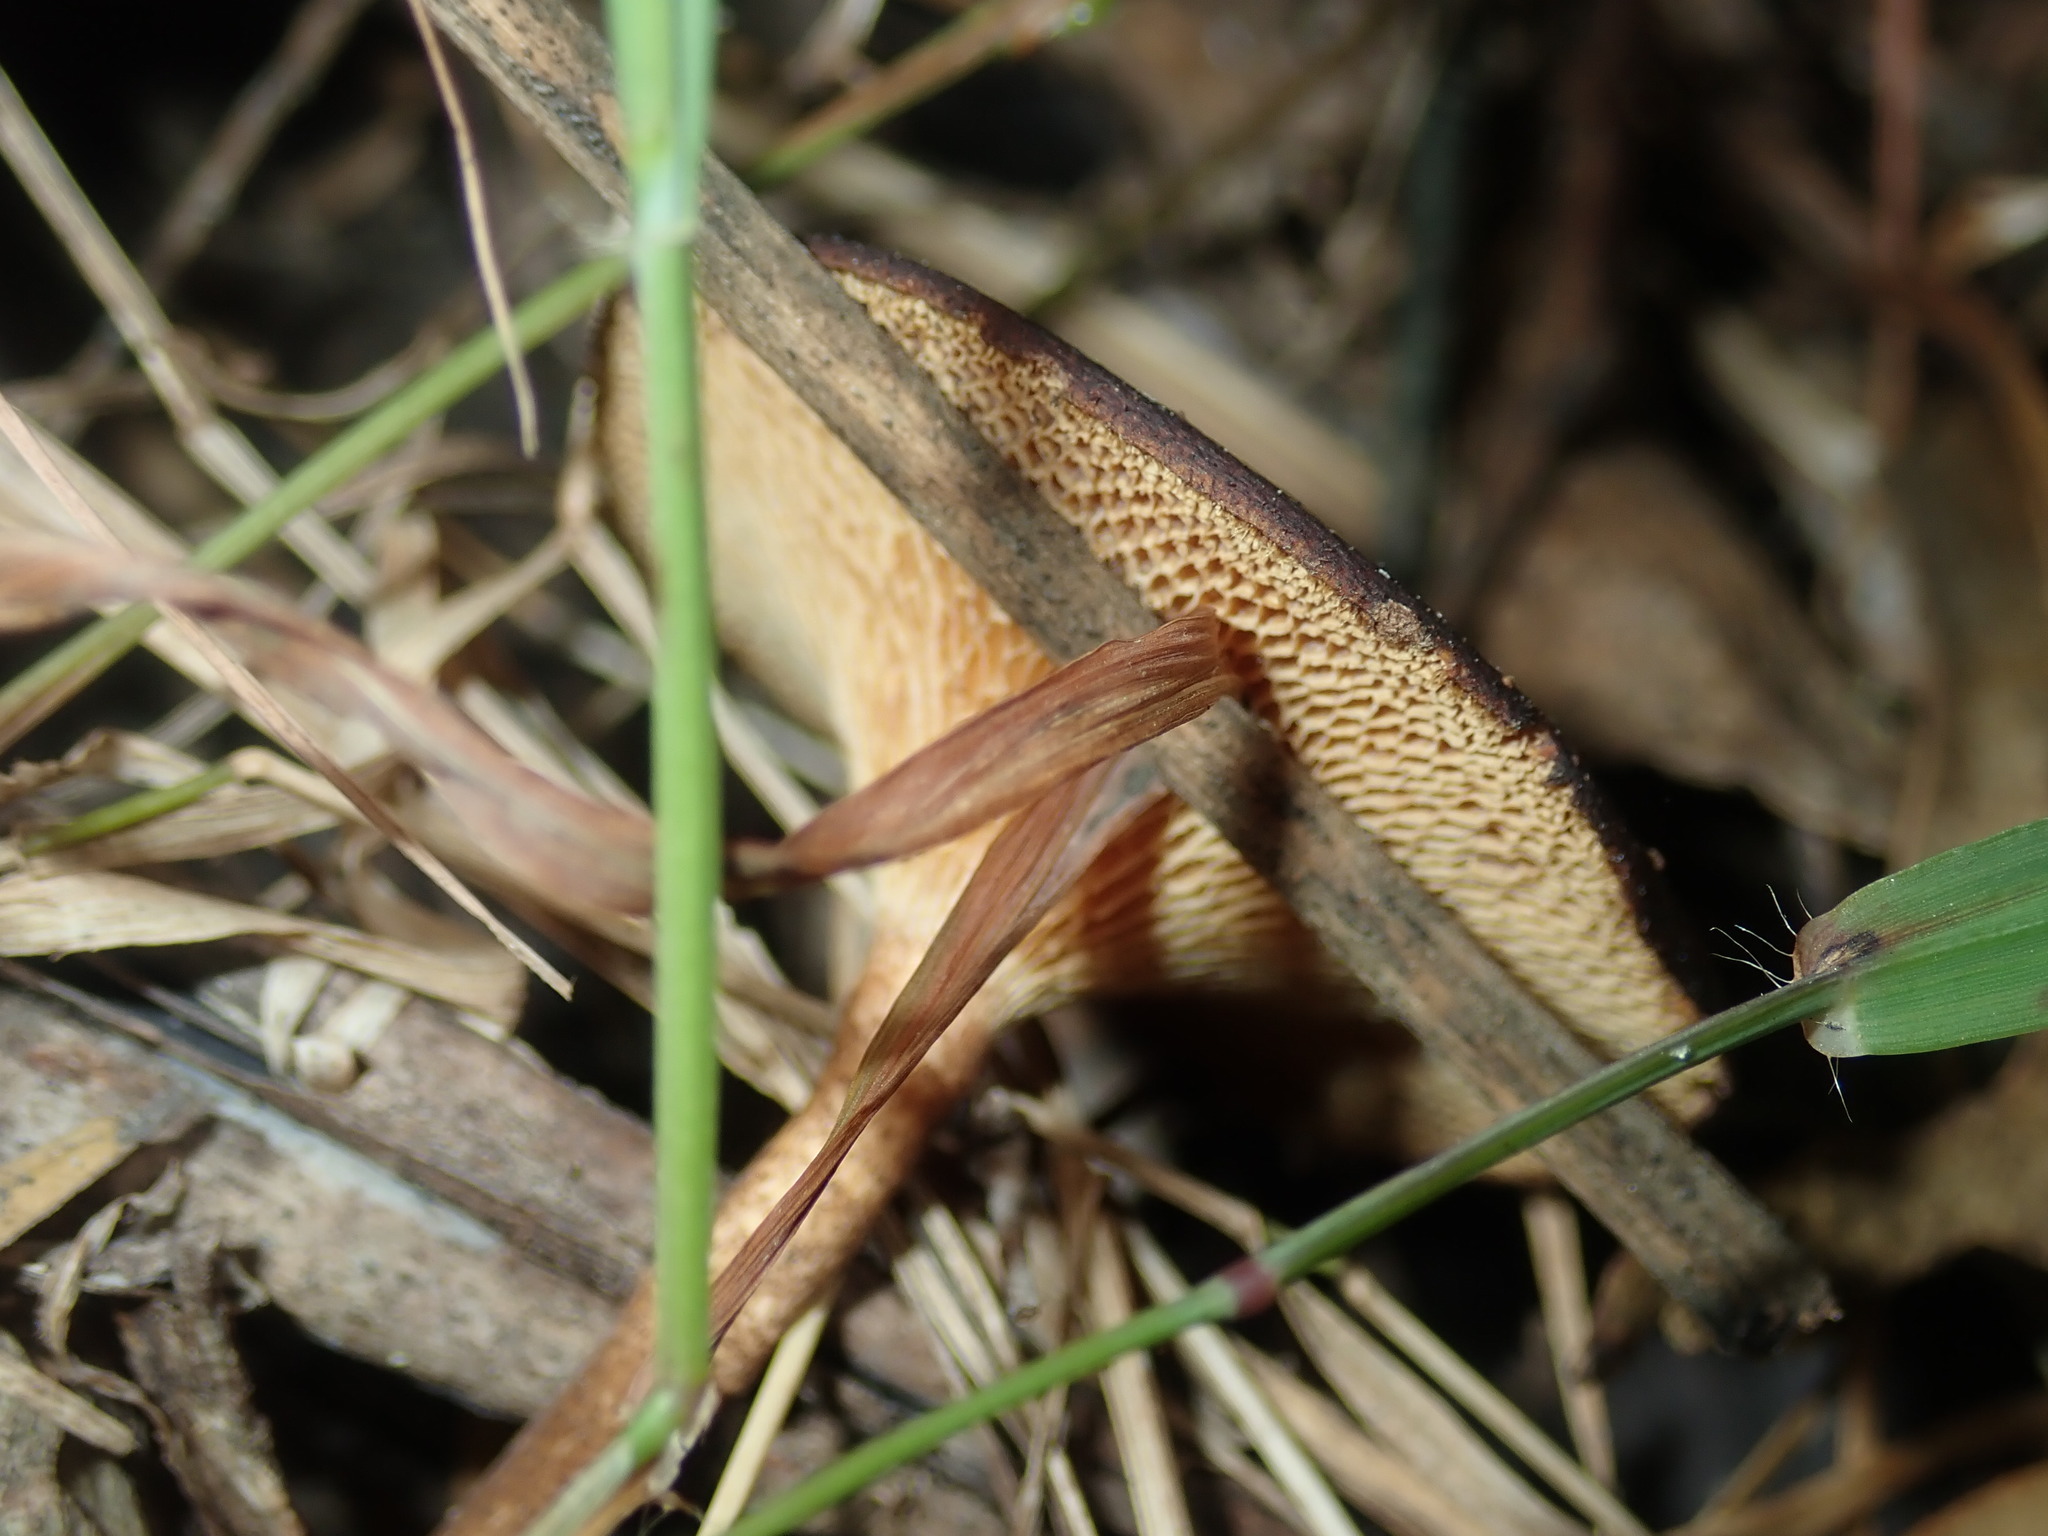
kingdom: Fungi
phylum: Basidiomycota
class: Agaricomycetes
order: Polyporales
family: Polyporaceae
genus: Lentinus
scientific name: Lentinus arcularius
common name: Spring polypore
